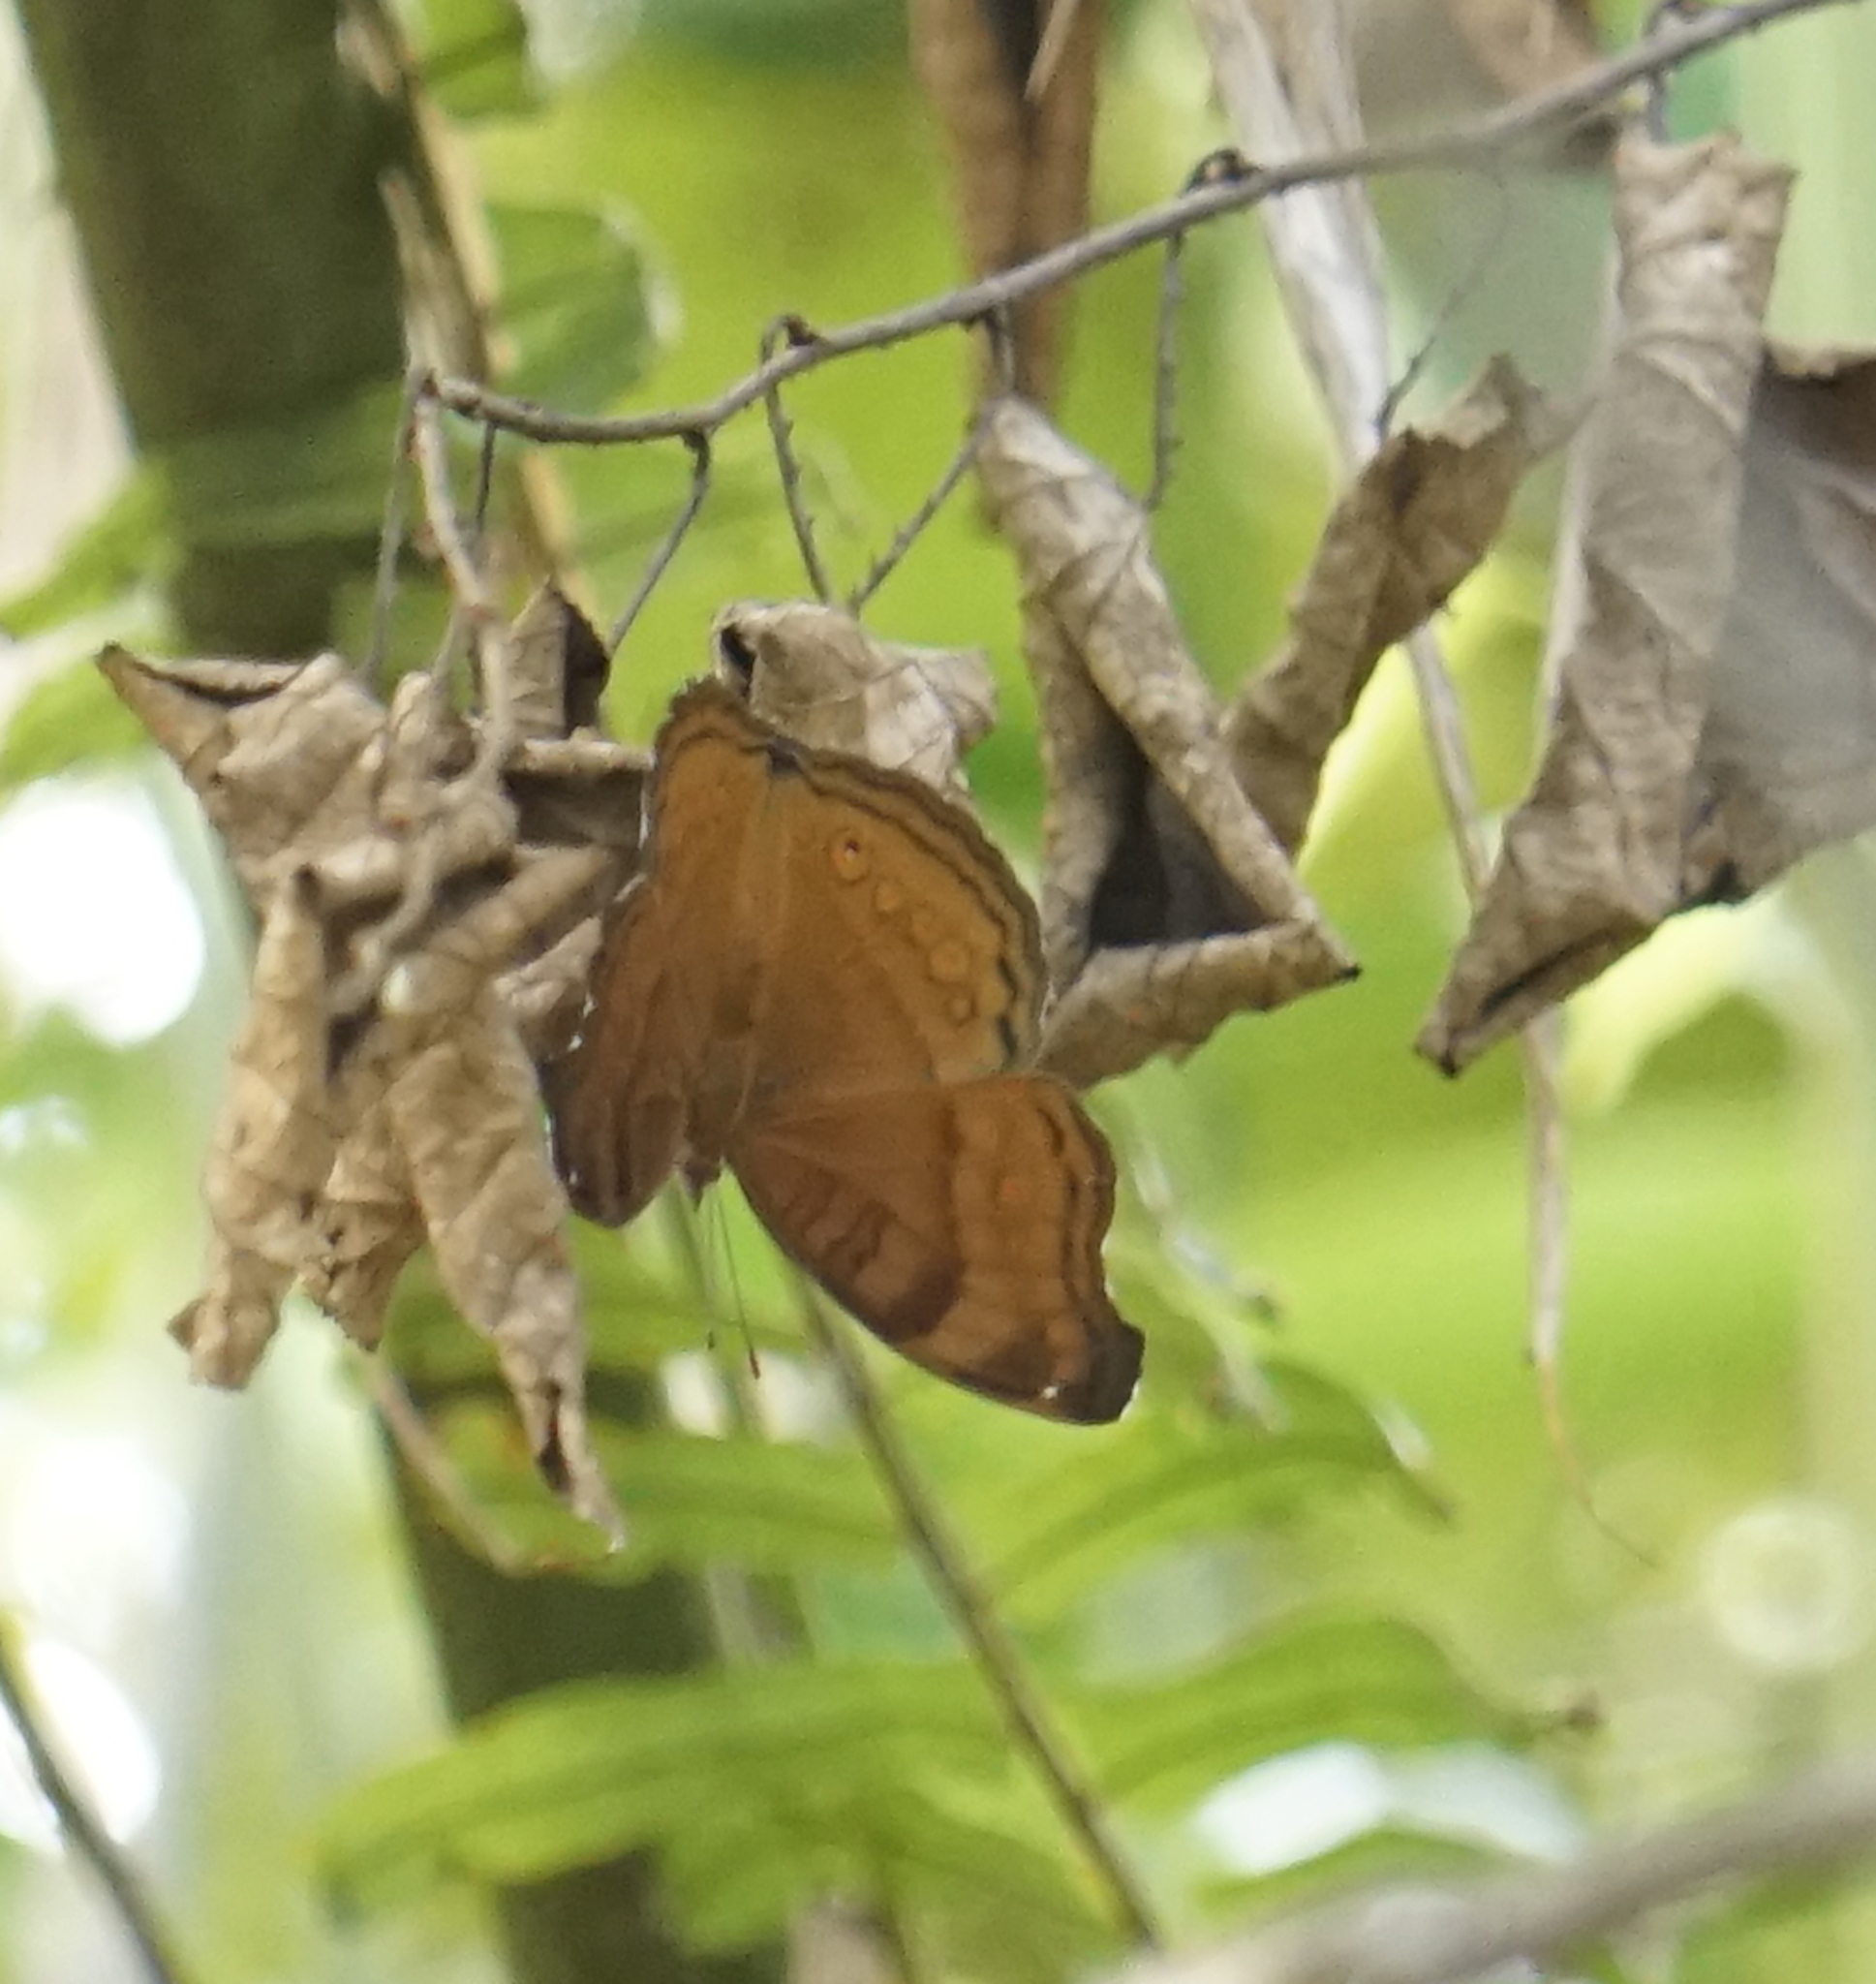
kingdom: Animalia
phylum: Arthropoda
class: Insecta
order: Lepidoptera
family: Nymphalidae
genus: Junonia
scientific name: Junonia hedonia
